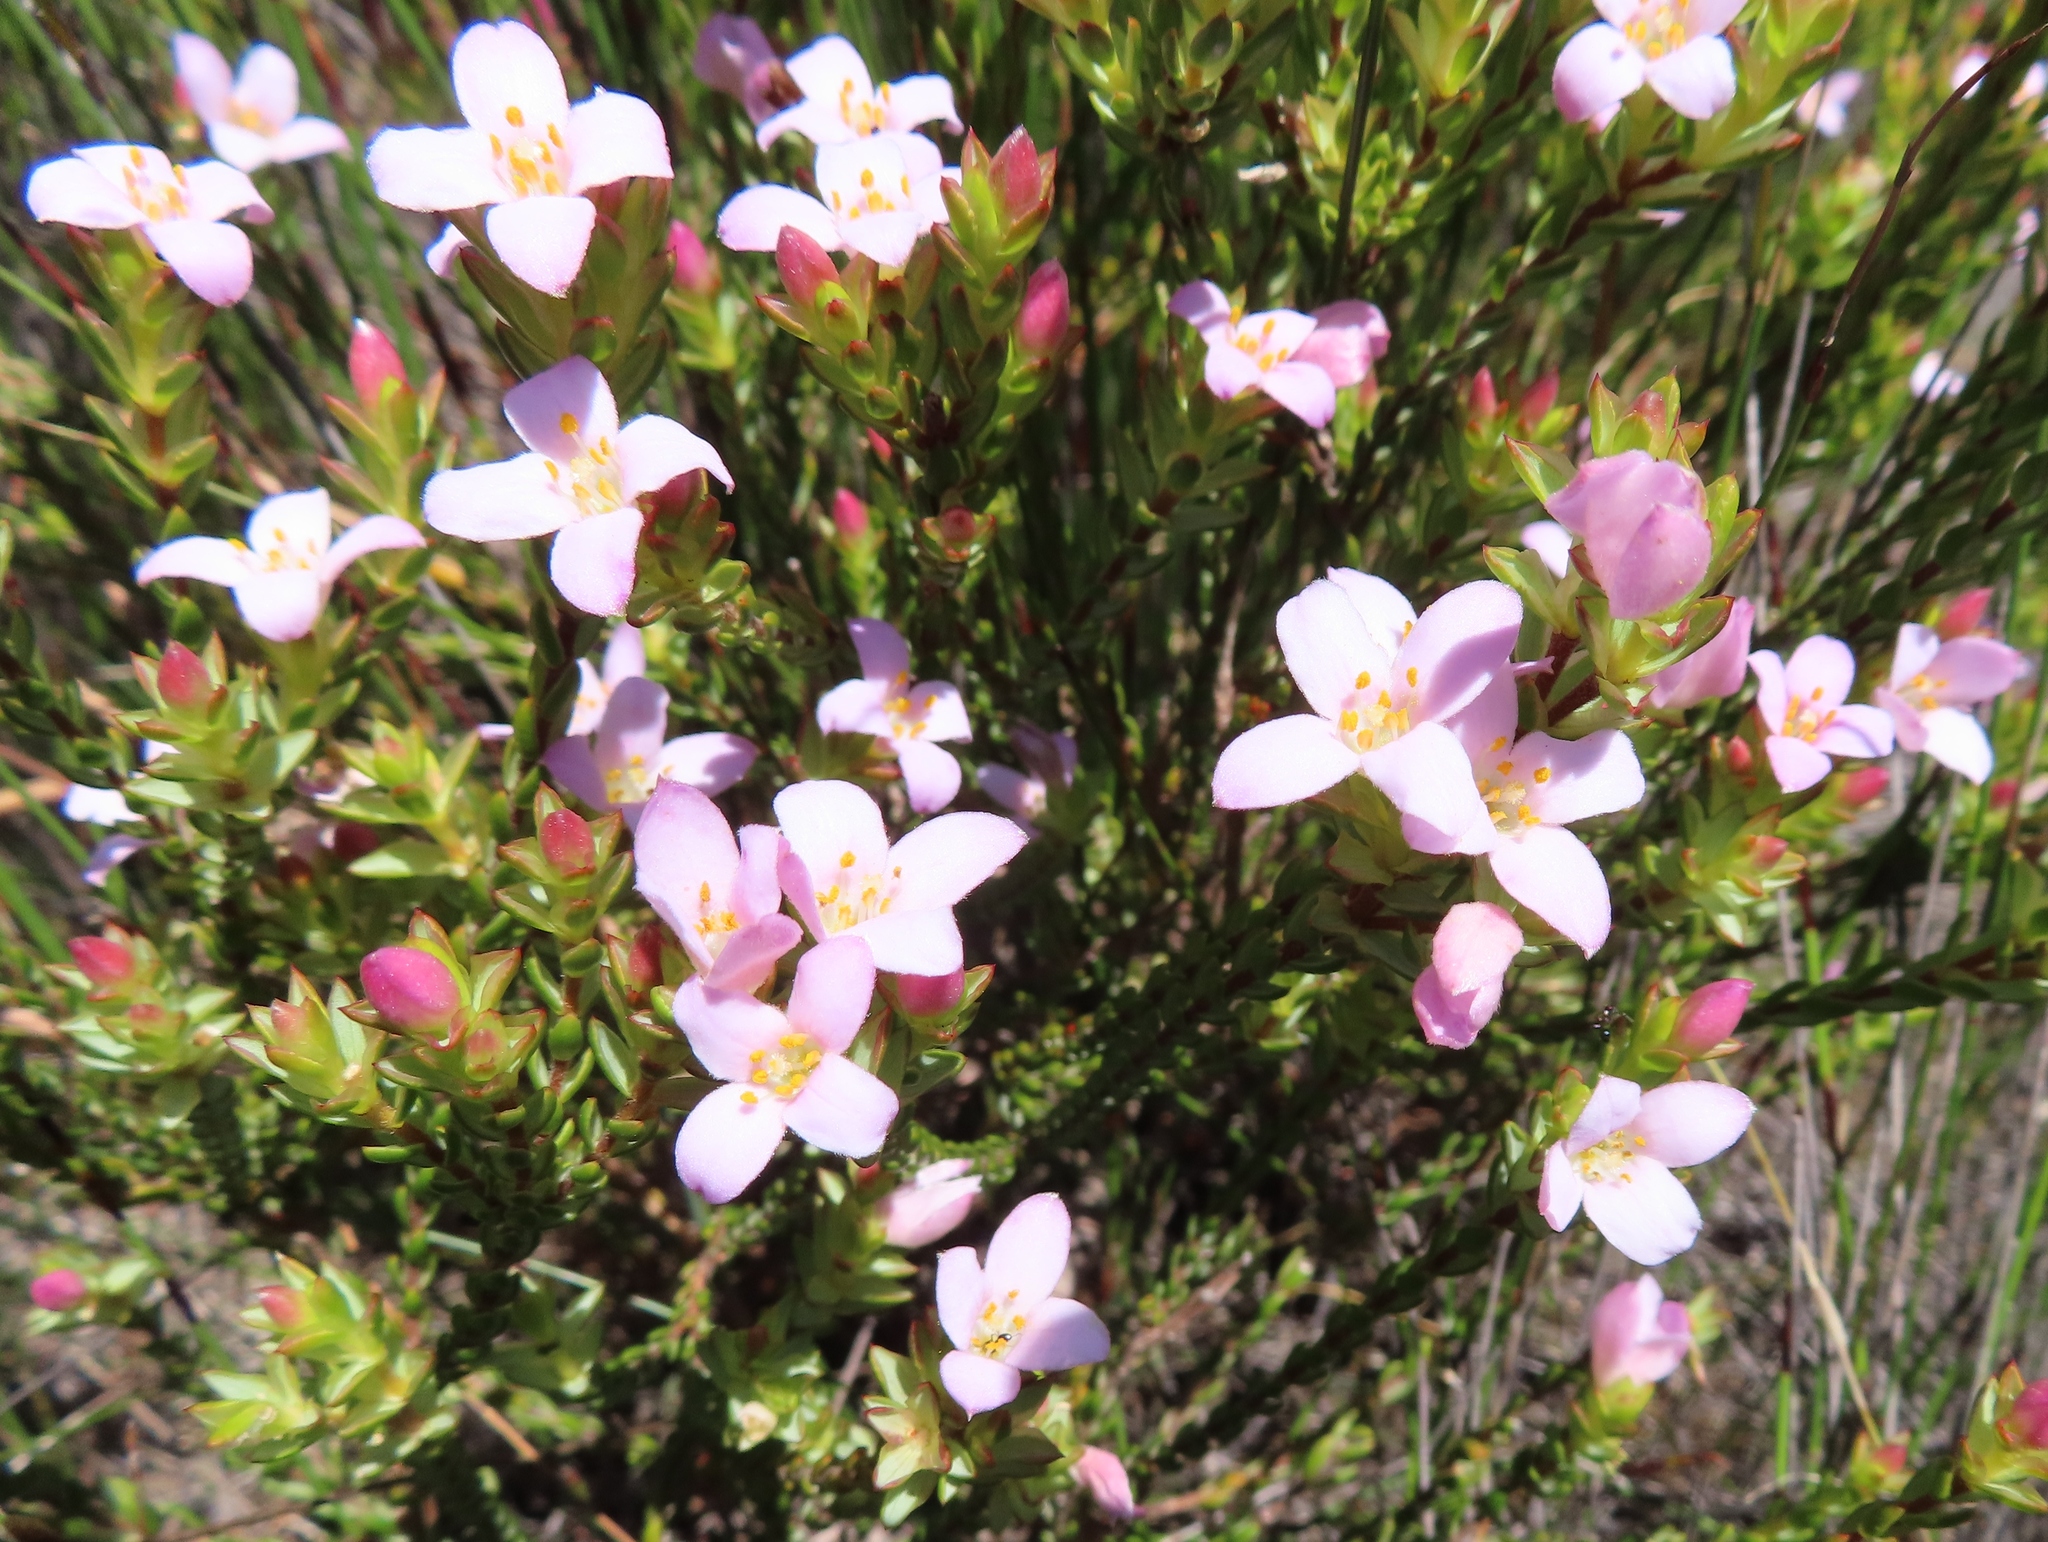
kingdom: Plantae
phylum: Tracheophyta
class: Magnoliopsida
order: Malvales
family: Thymelaeaceae
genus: Lachnaea
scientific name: Lachnaea grandiflora
